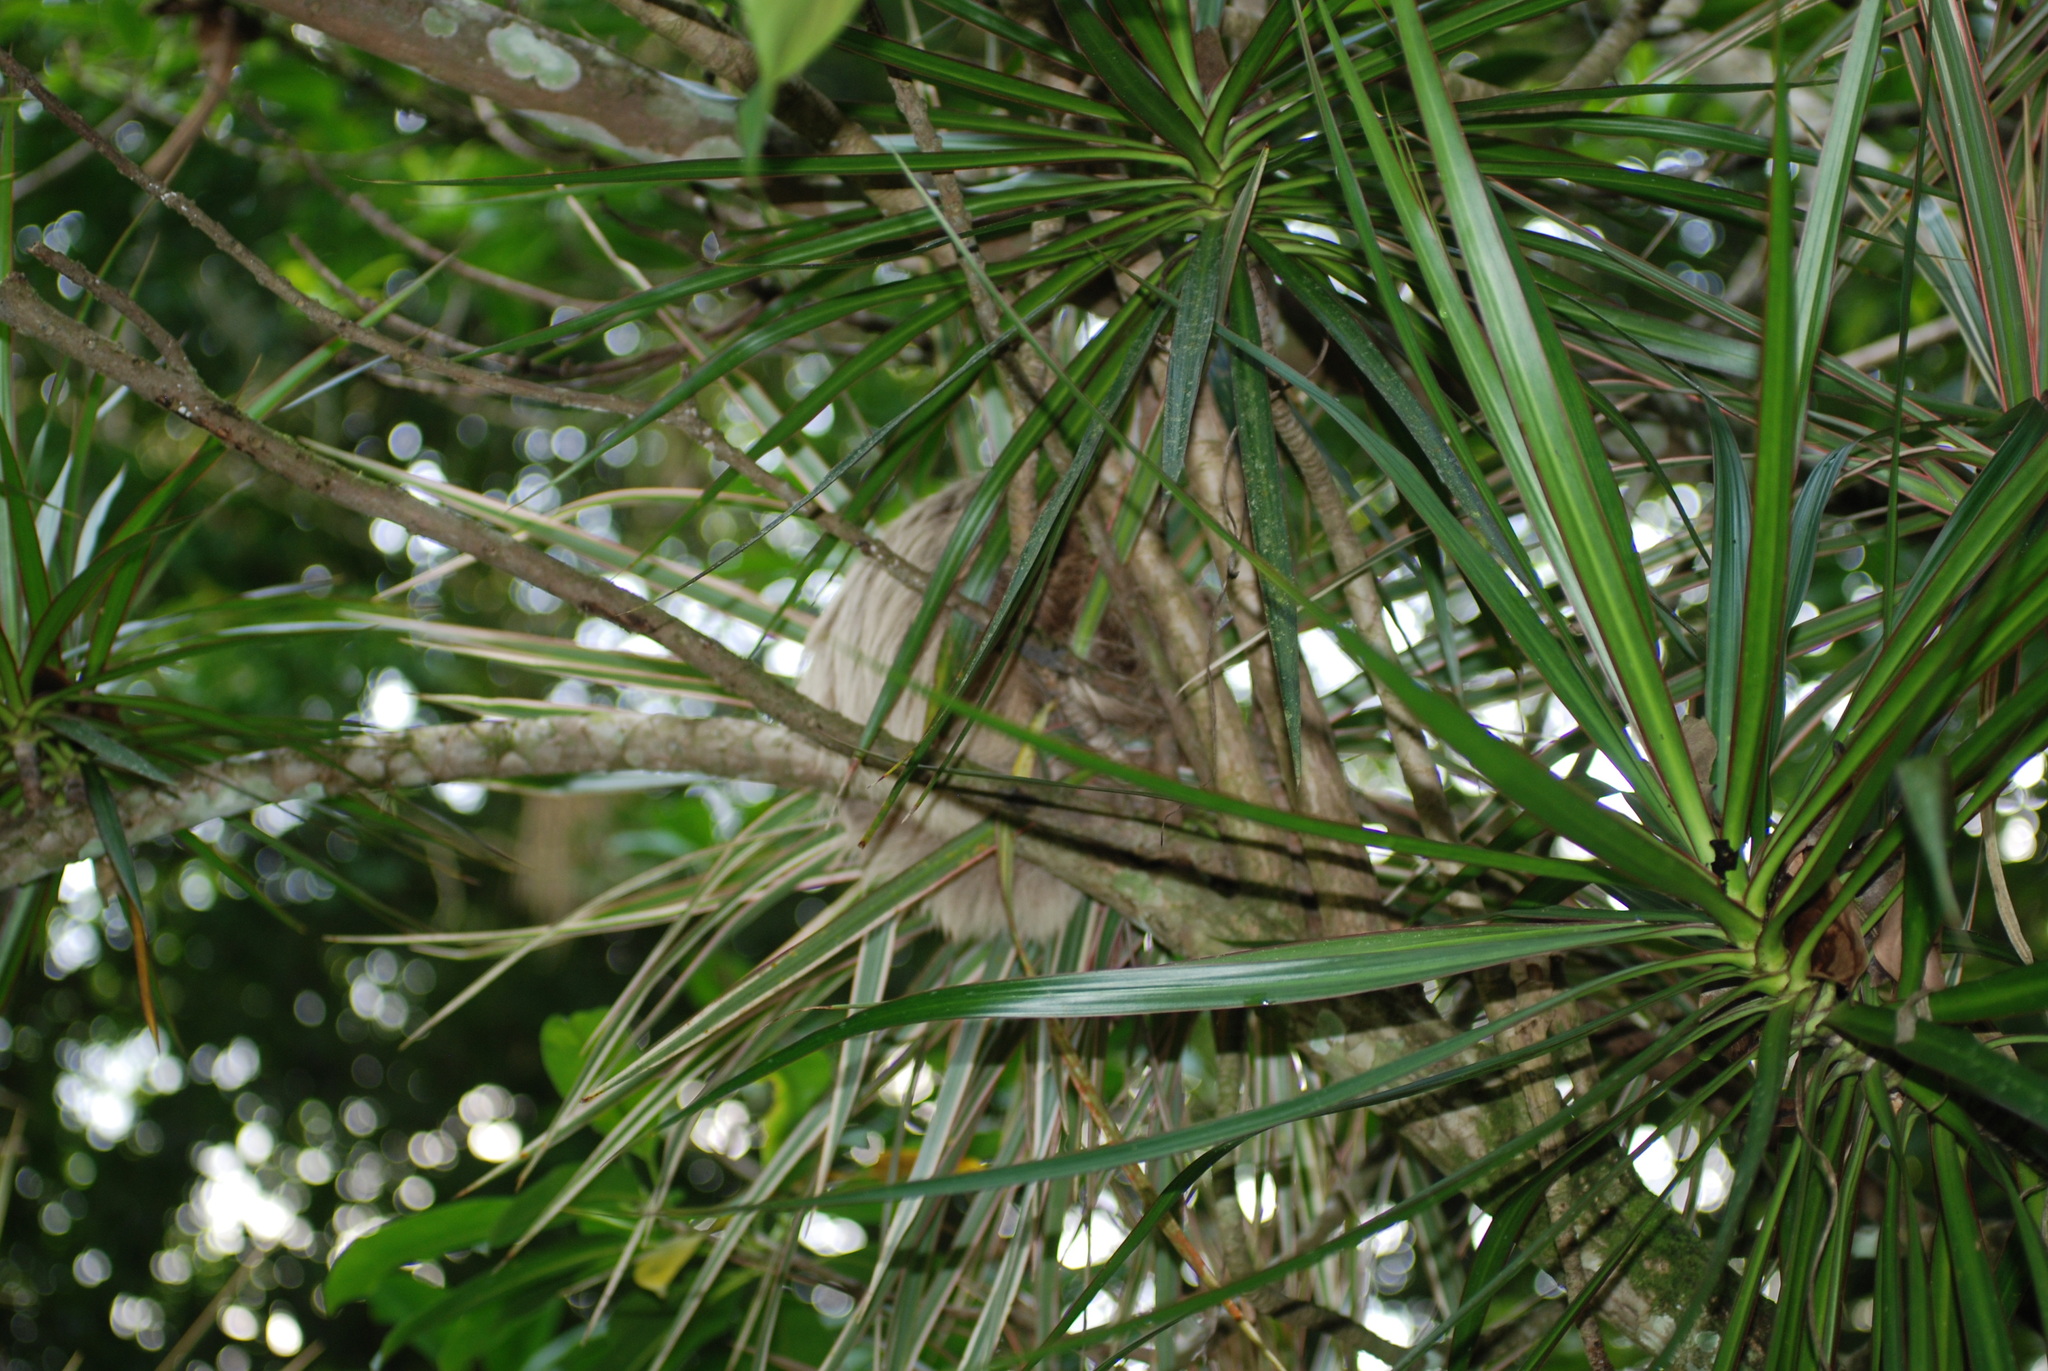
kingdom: Animalia
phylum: Chordata
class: Mammalia
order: Pilosa
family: Megalonychidae
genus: Choloepus
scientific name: Choloepus hoffmanni
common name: Hoffmann's two-toed sloth
